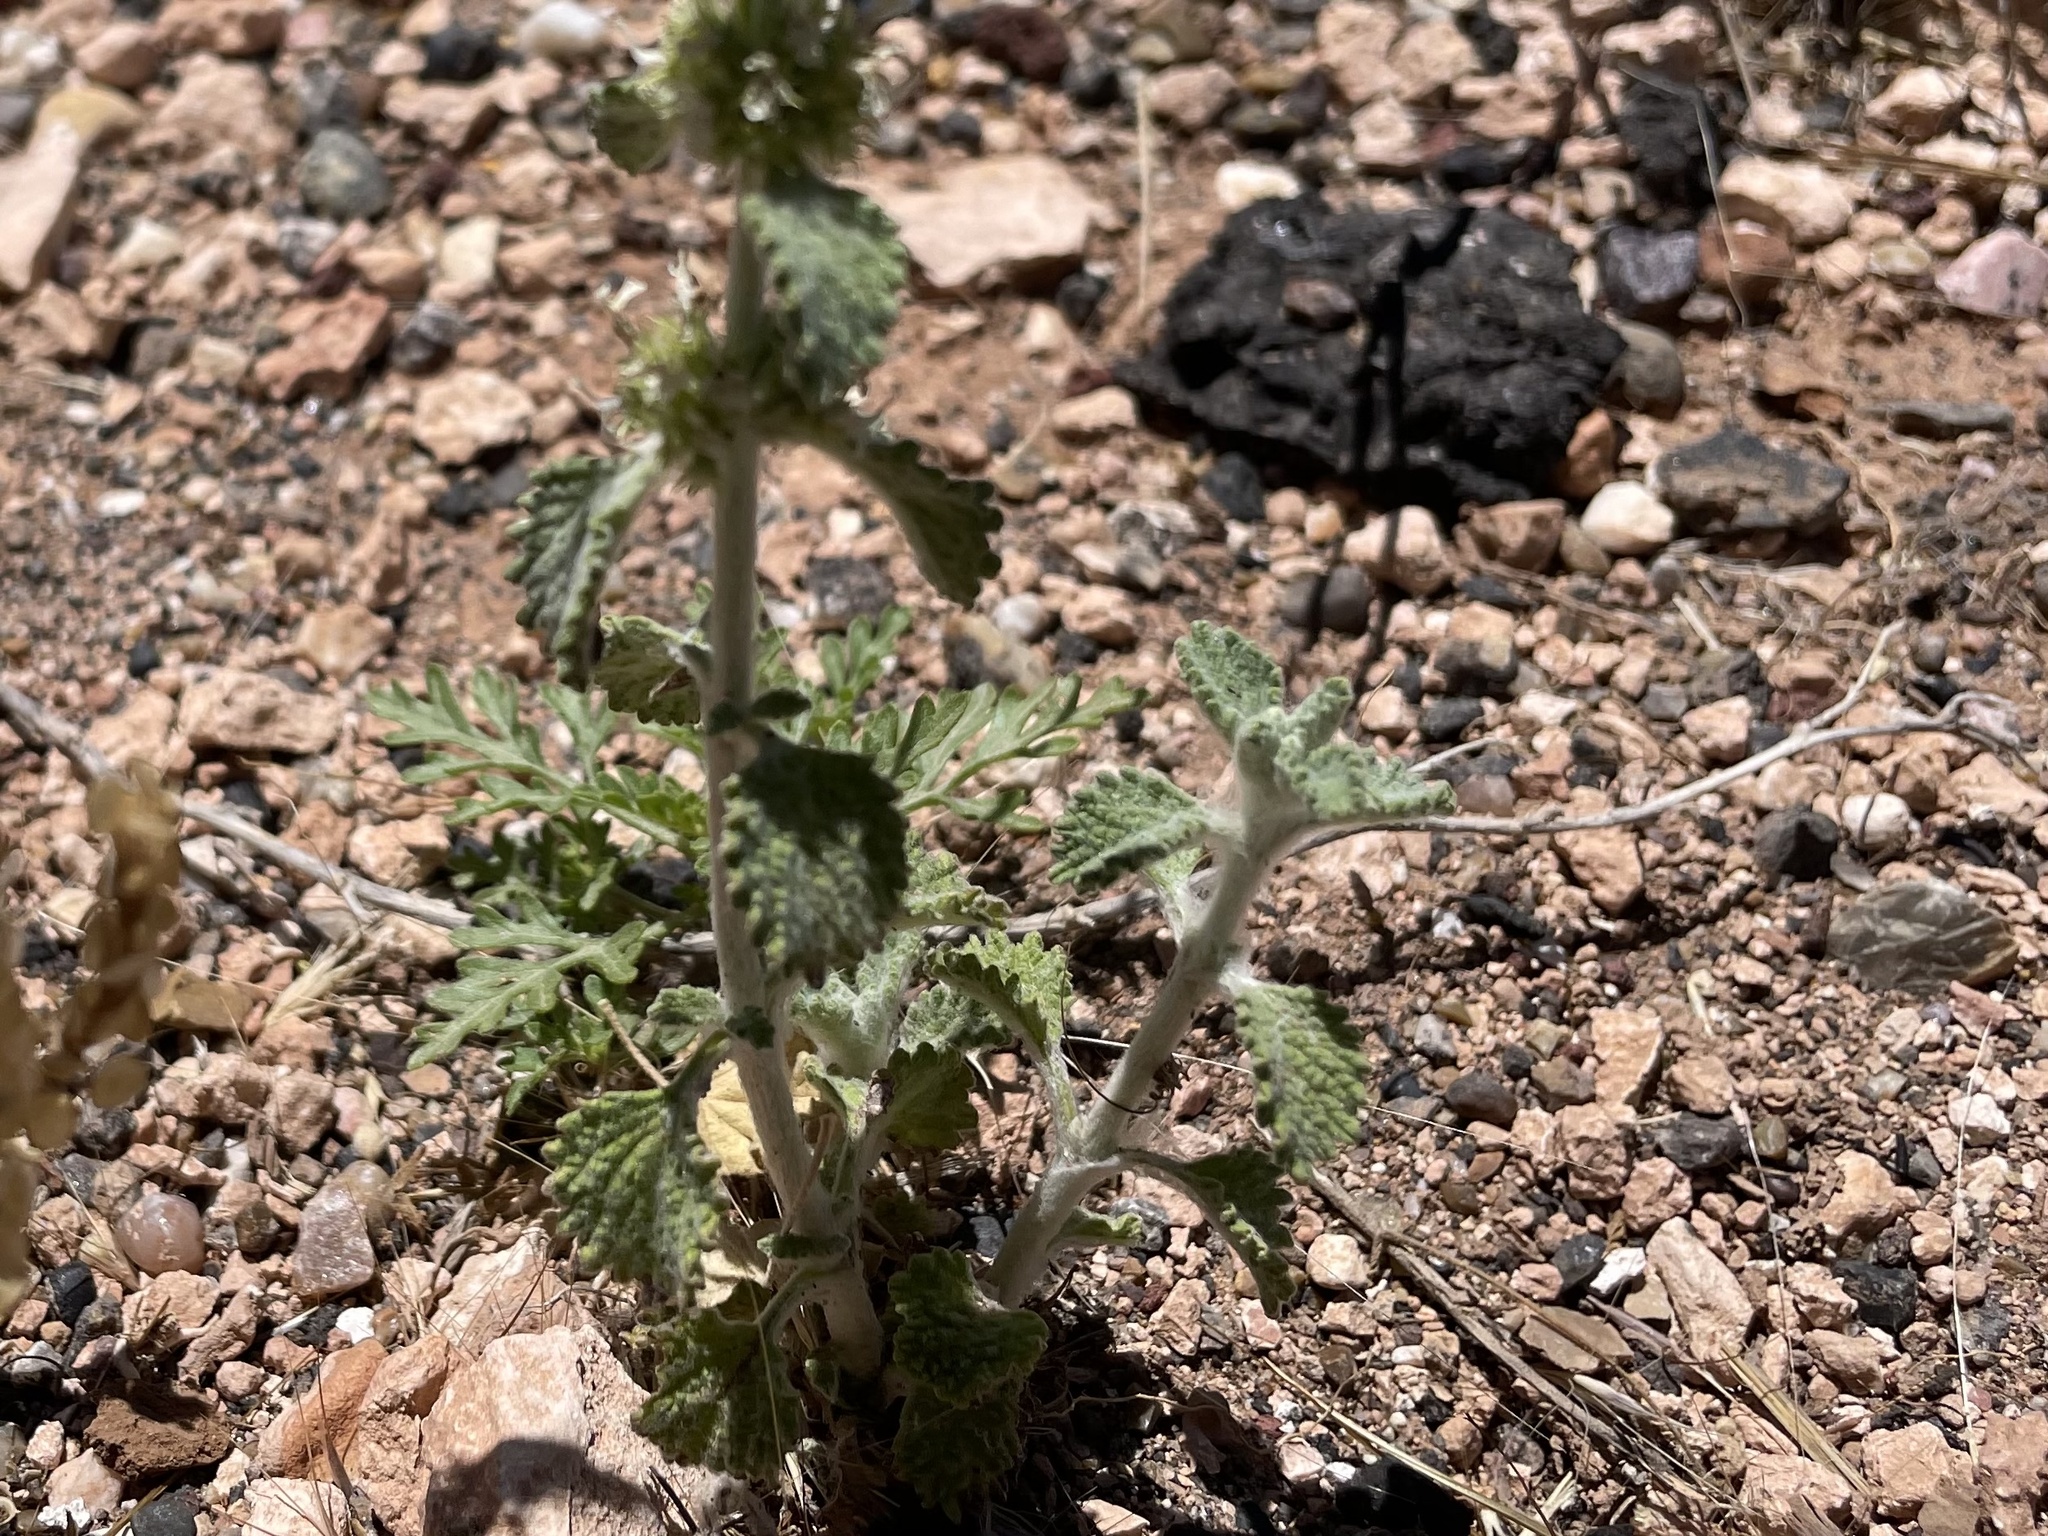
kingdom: Plantae
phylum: Tracheophyta
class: Magnoliopsida
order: Lamiales
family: Lamiaceae
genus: Marrubium
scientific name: Marrubium vulgare
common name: Horehound
